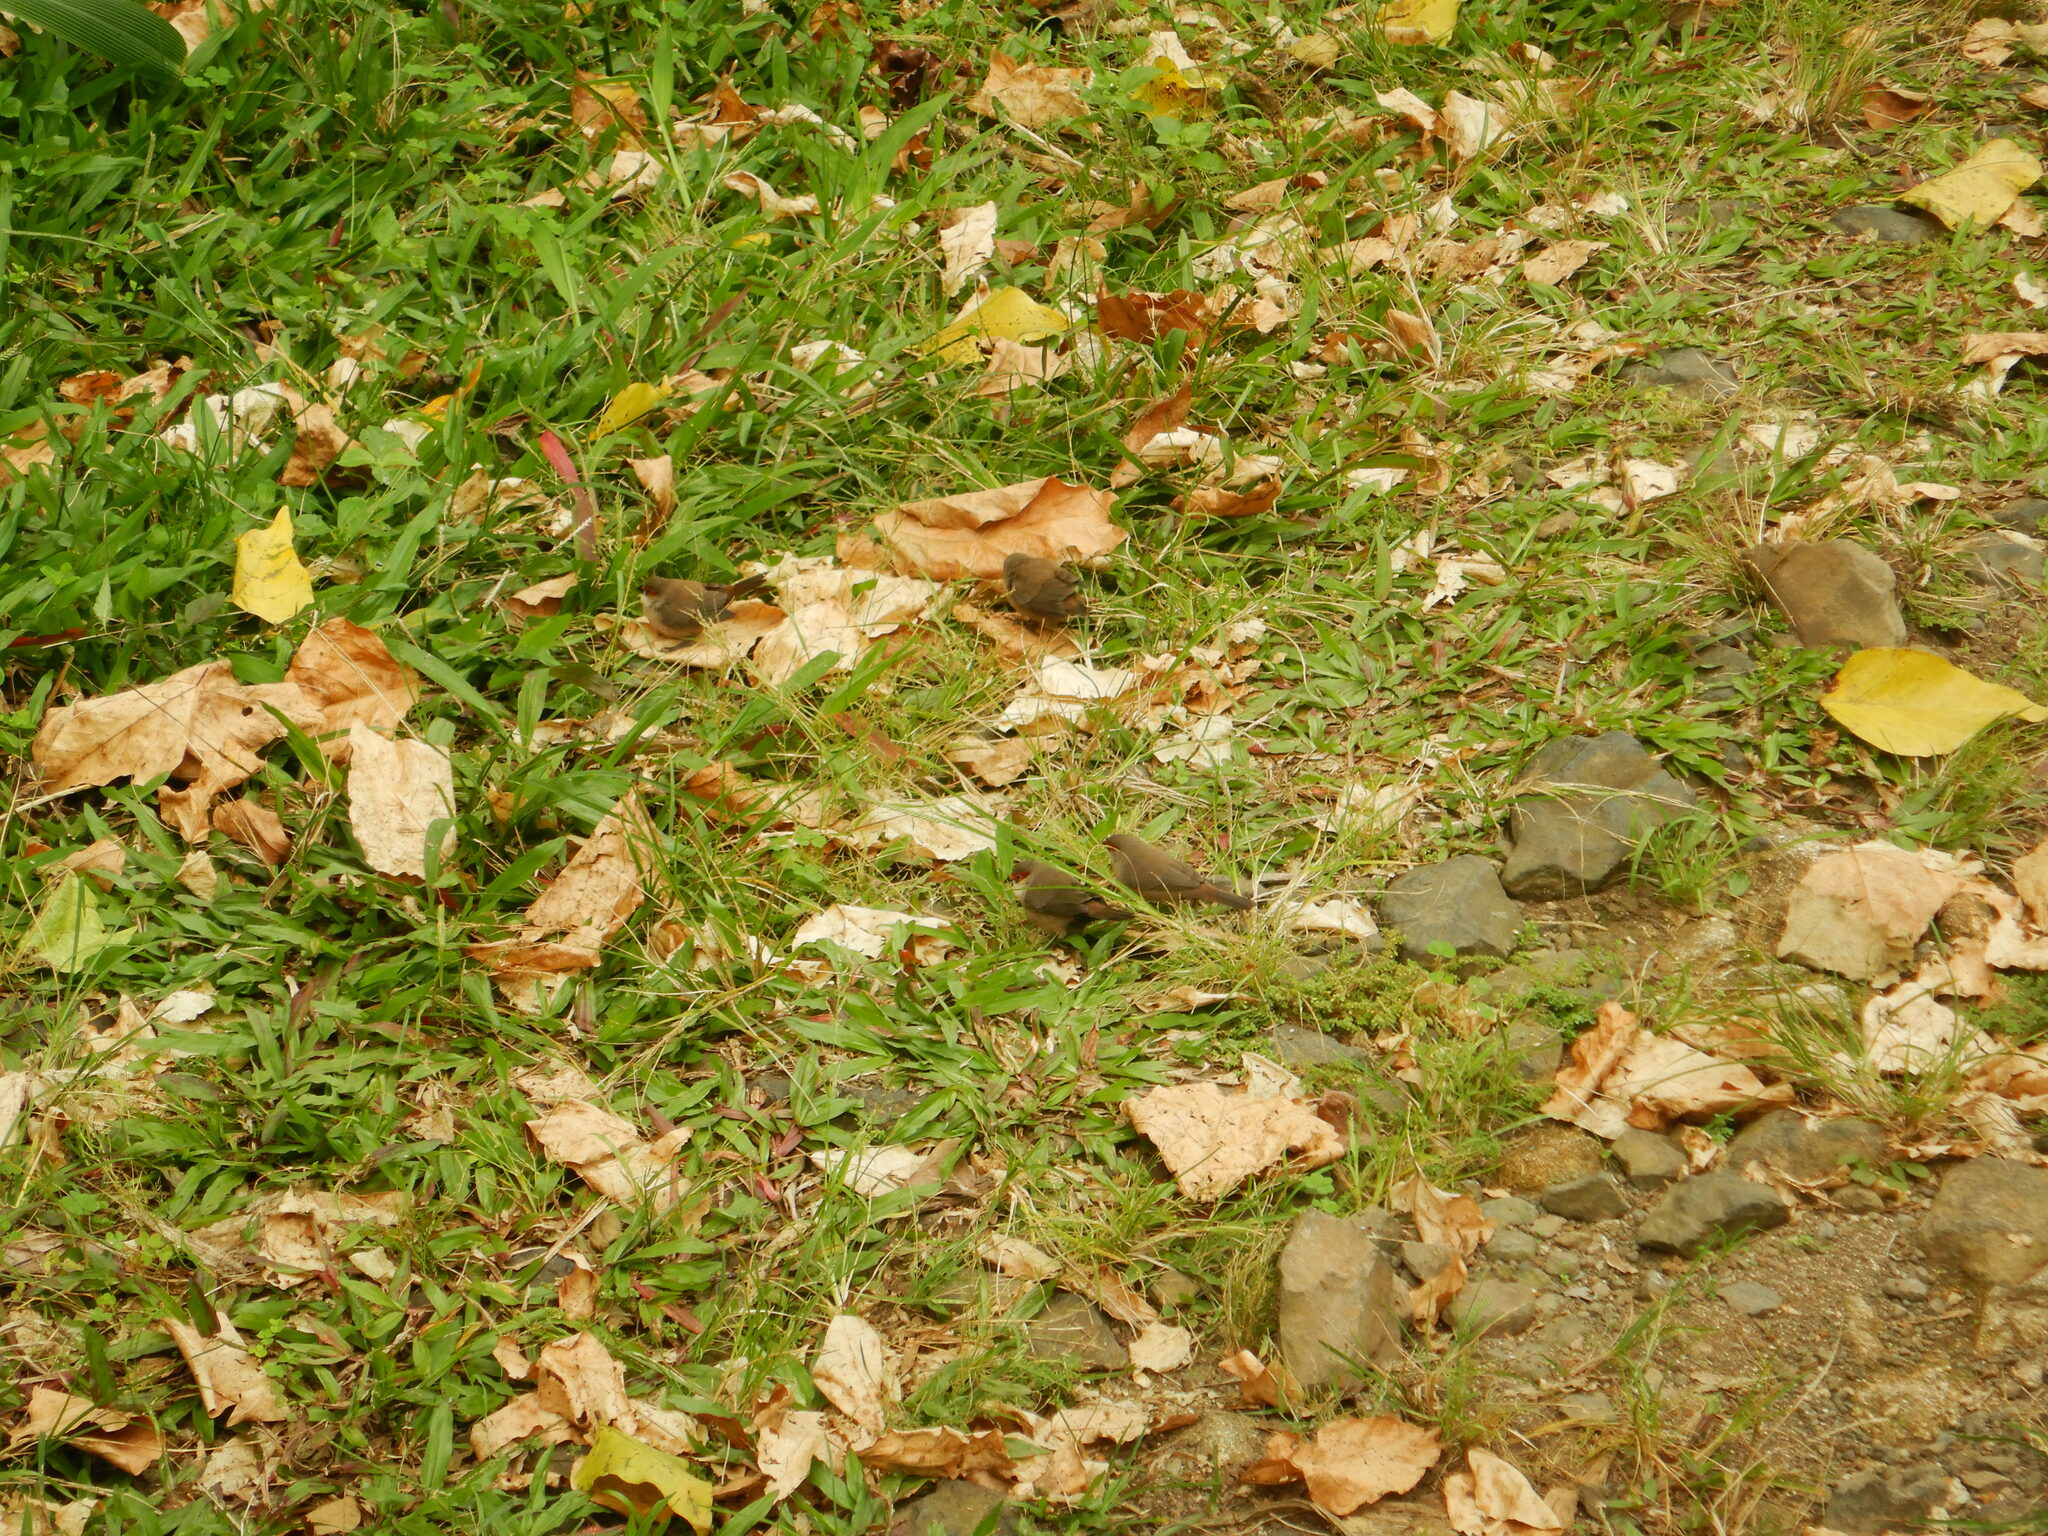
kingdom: Animalia
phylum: Chordata
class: Aves
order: Passeriformes
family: Estrildidae
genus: Estrilda
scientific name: Estrilda astrild
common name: Common waxbill
